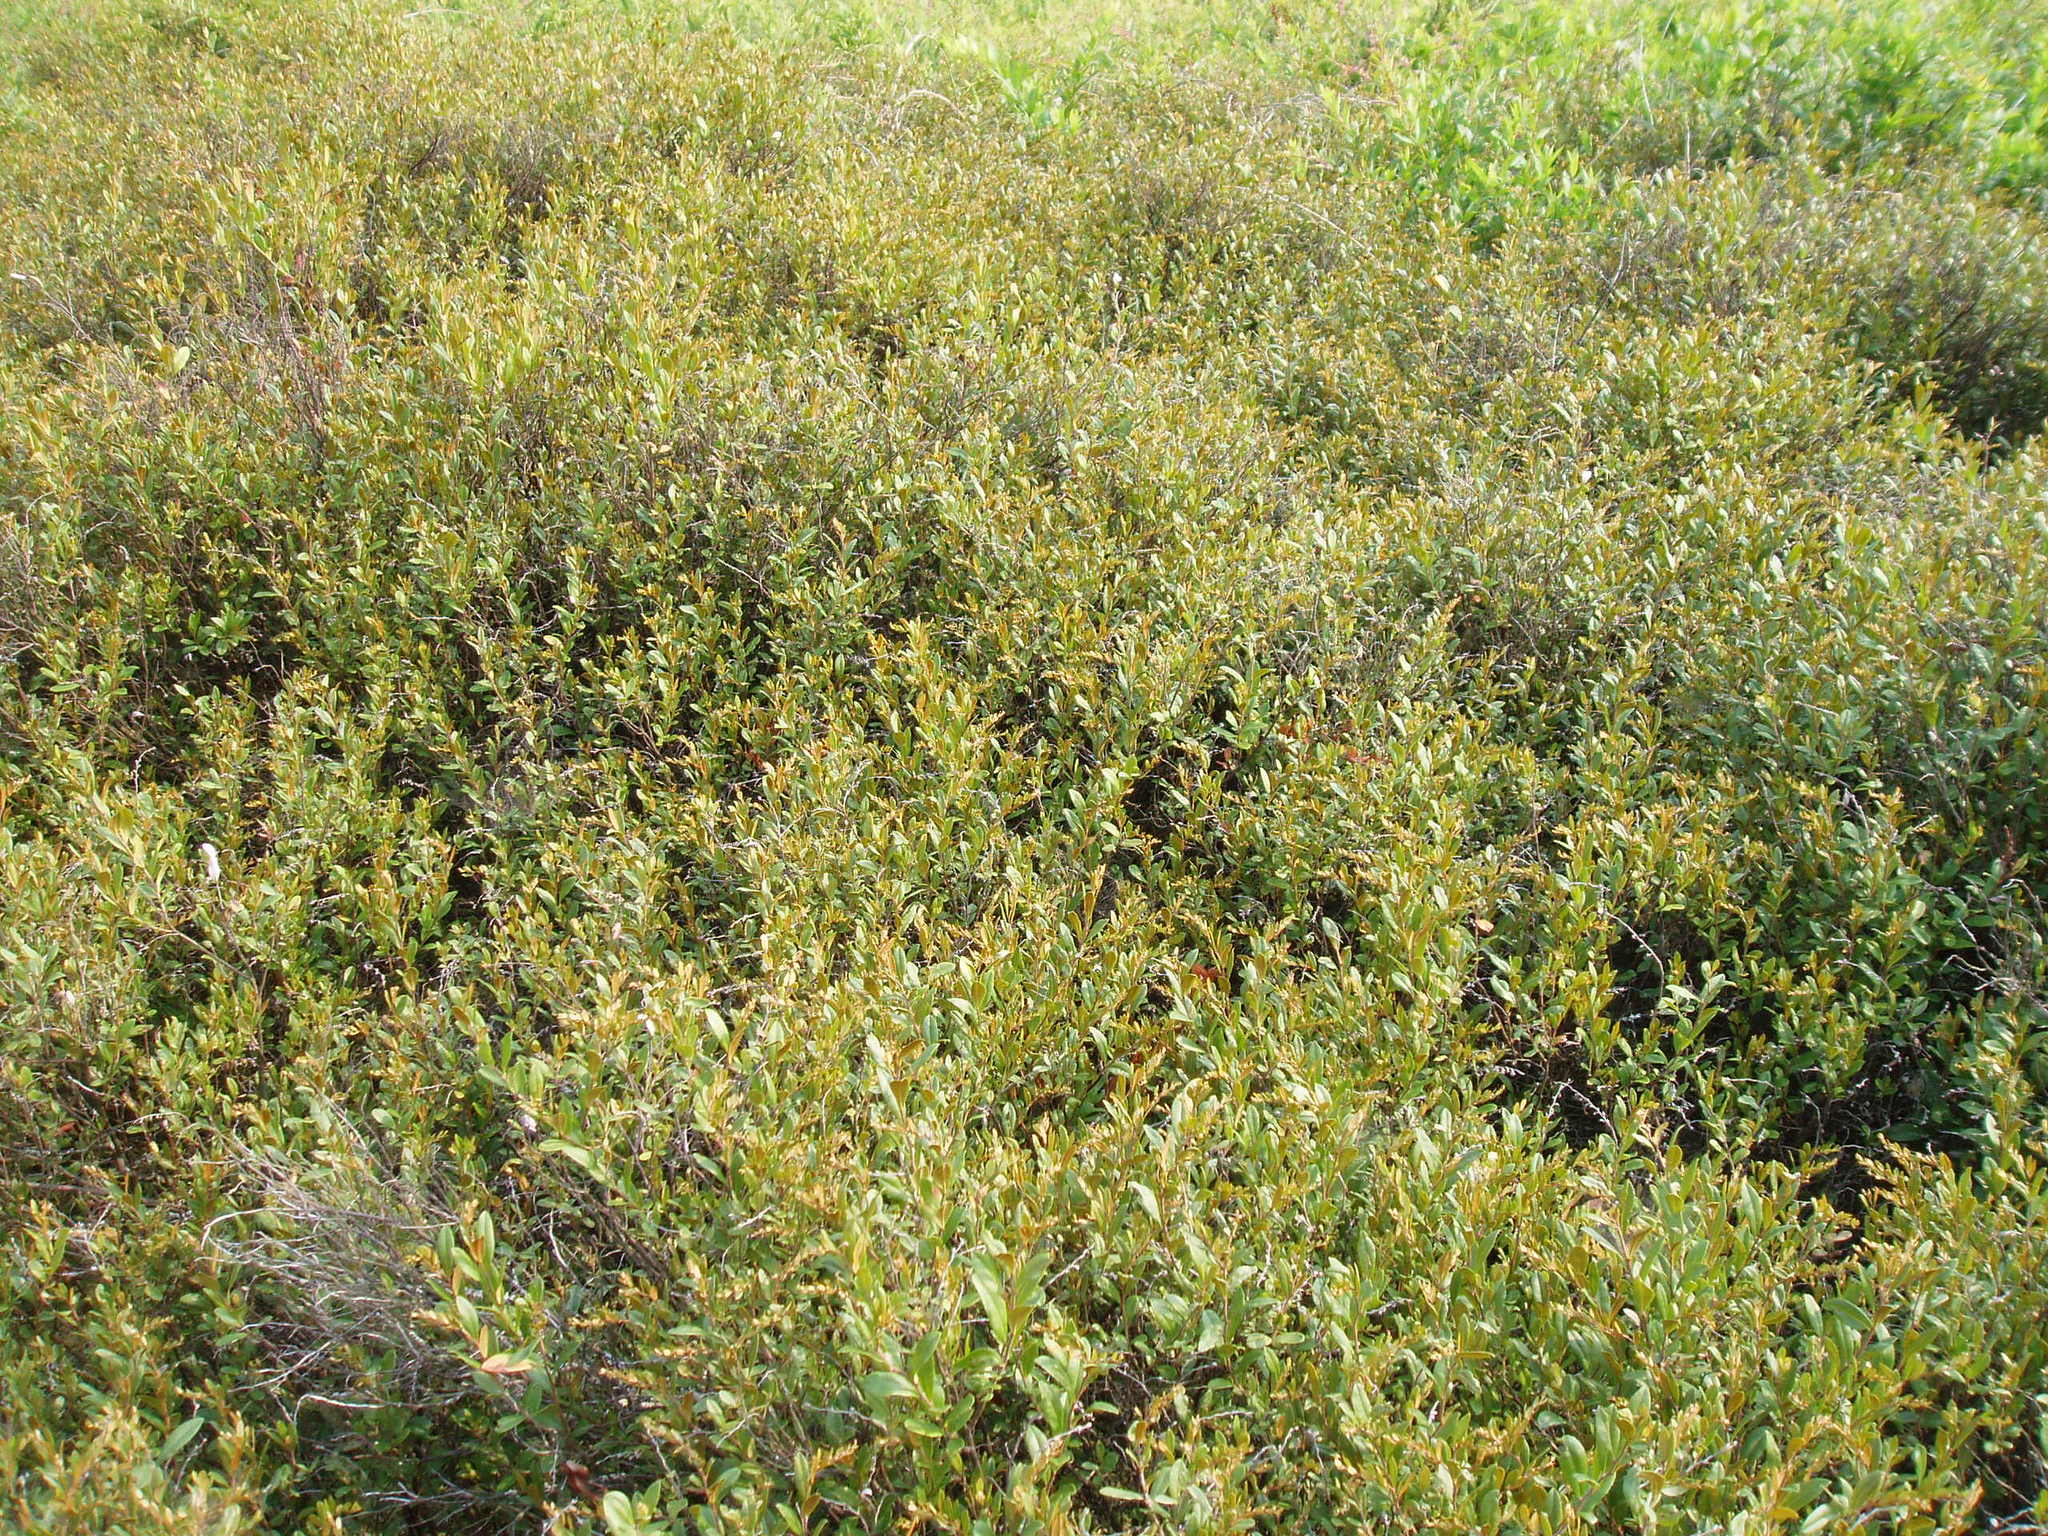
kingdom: Plantae
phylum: Tracheophyta
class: Magnoliopsida
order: Ericales
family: Ericaceae
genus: Chamaedaphne
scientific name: Chamaedaphne calyculata
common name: Leatherleaf
